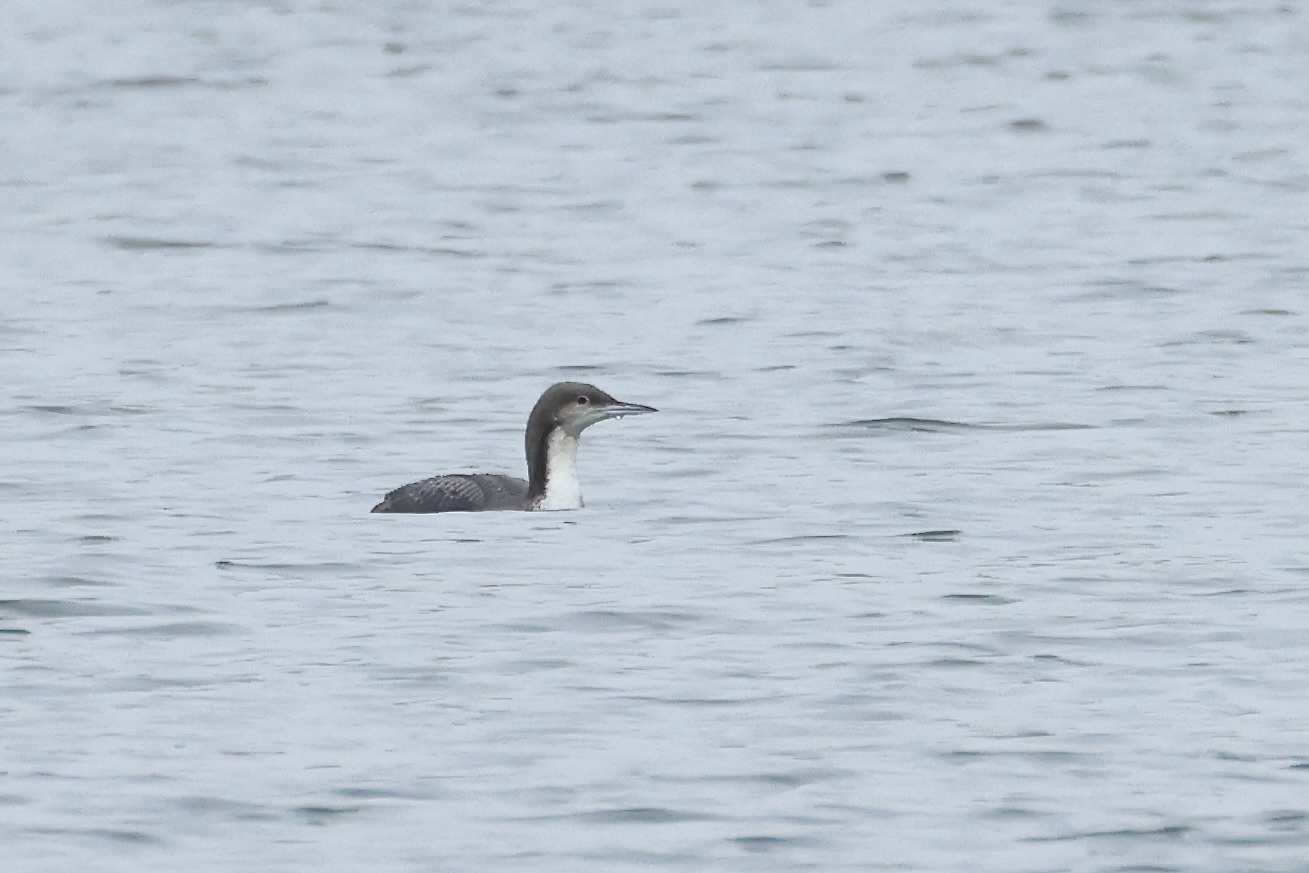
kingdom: Animalia
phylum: Chordata
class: Aves
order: Gaviiformes
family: Gaviidae
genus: Gavia
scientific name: Gavia pacifica
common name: Pacific loon
